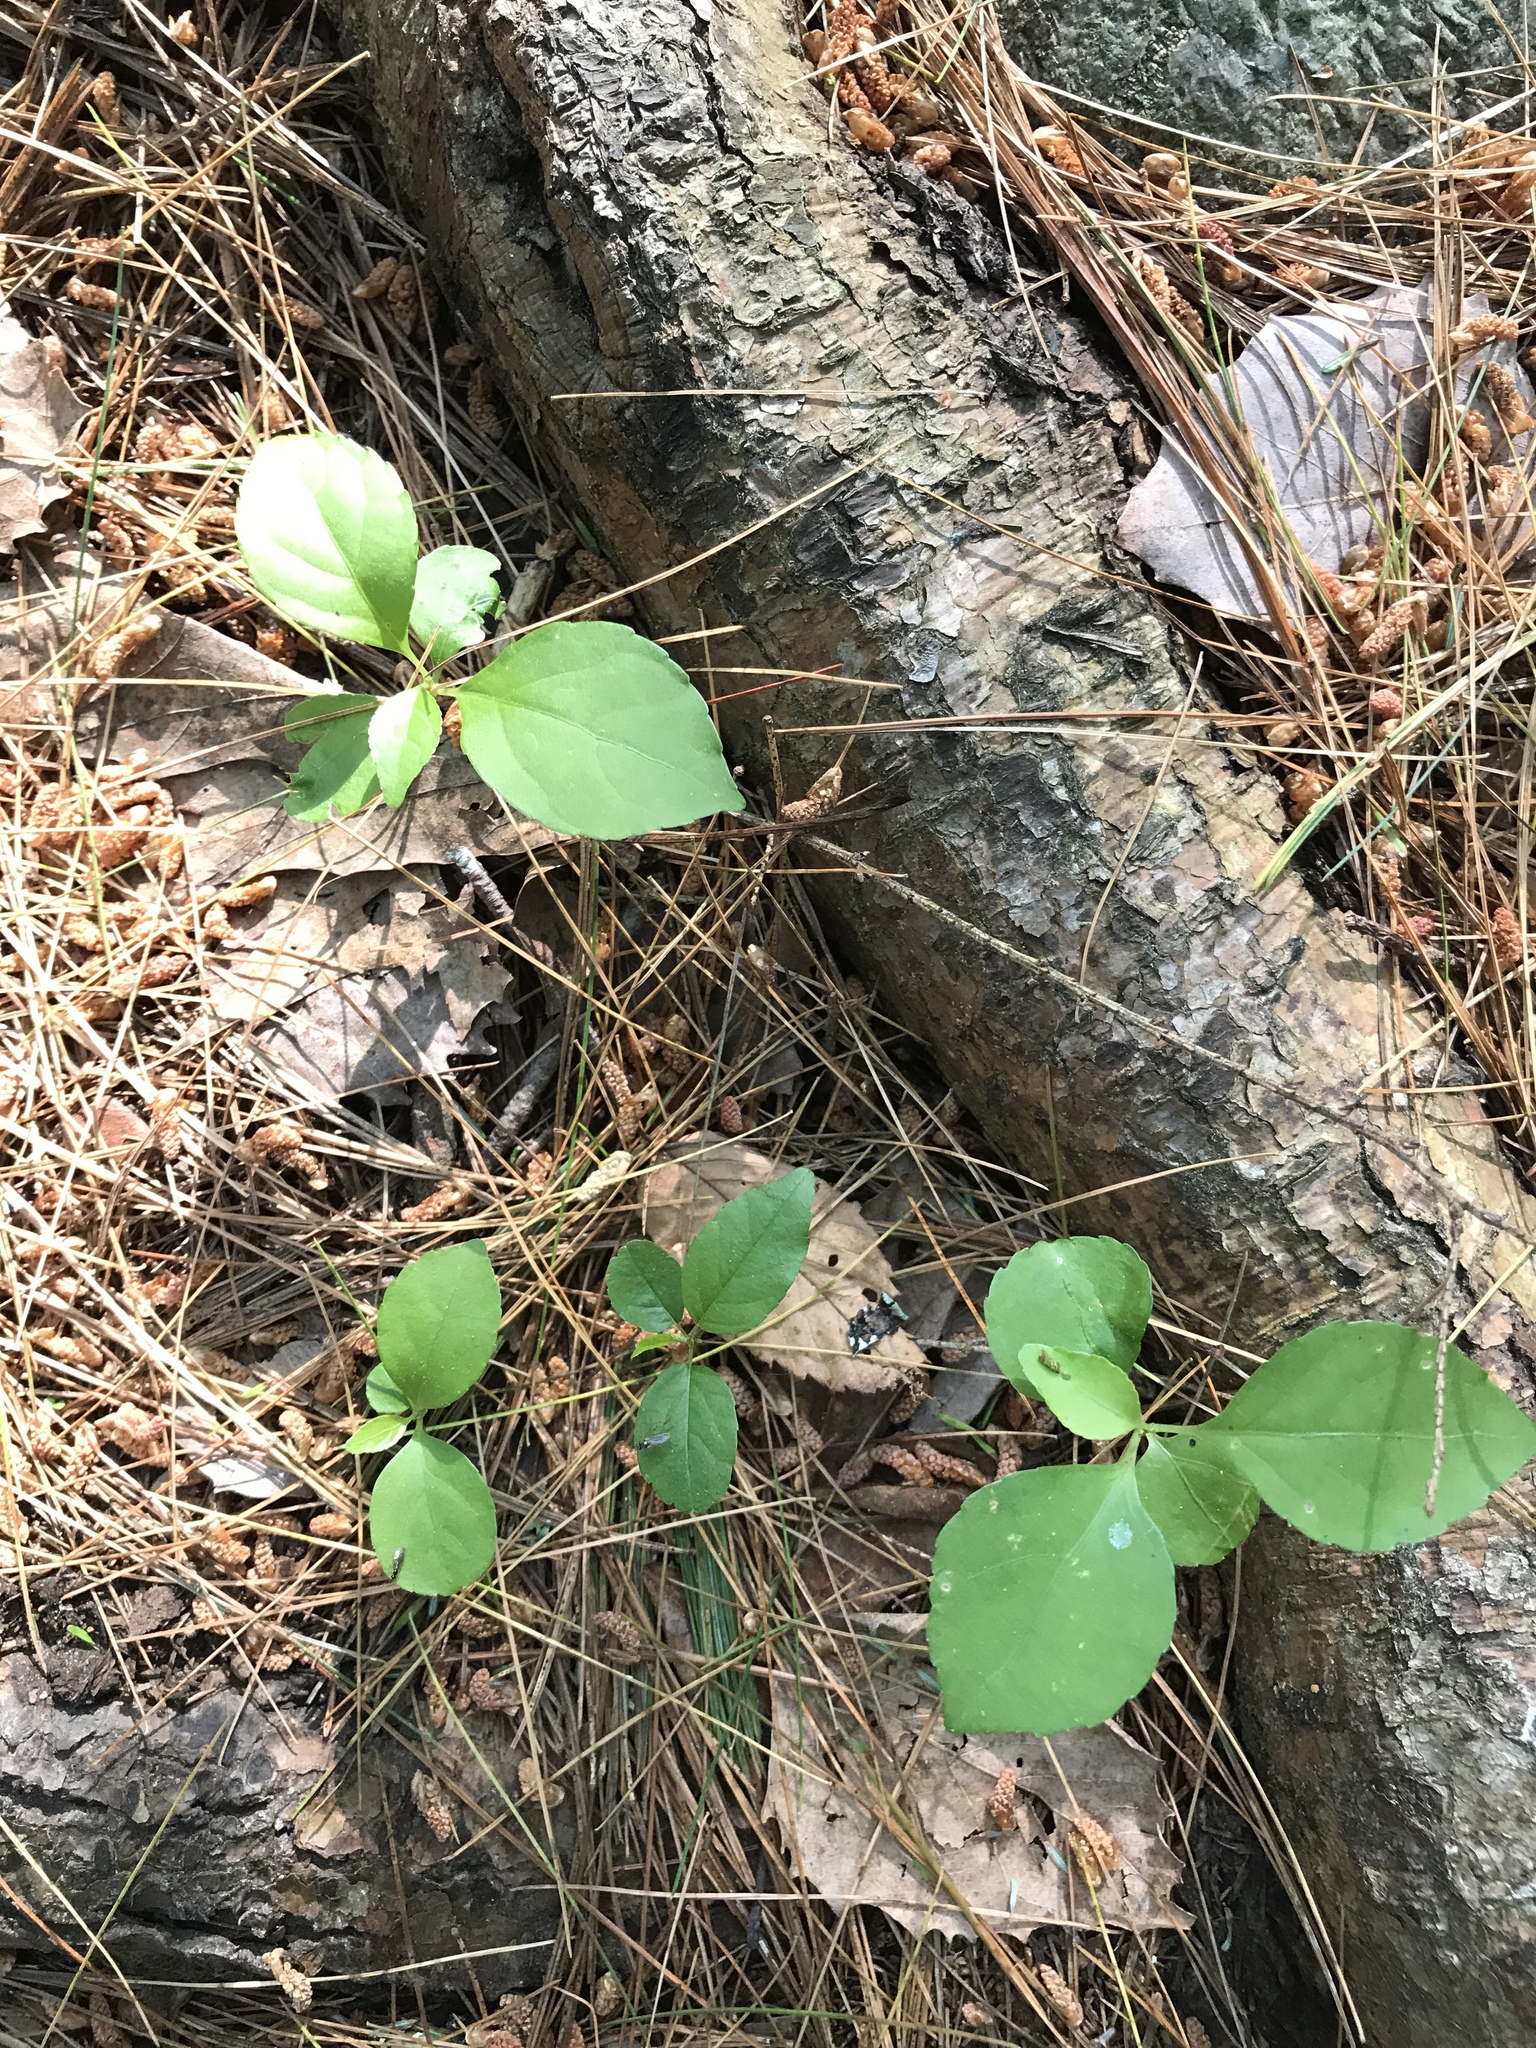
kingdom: Plantae
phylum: Tracheophyta
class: Magnoliopsida
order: Celastrales
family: Celastraceae
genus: Celastrus
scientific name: Celastrus orbiculatus
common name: Oriental bittersweet
